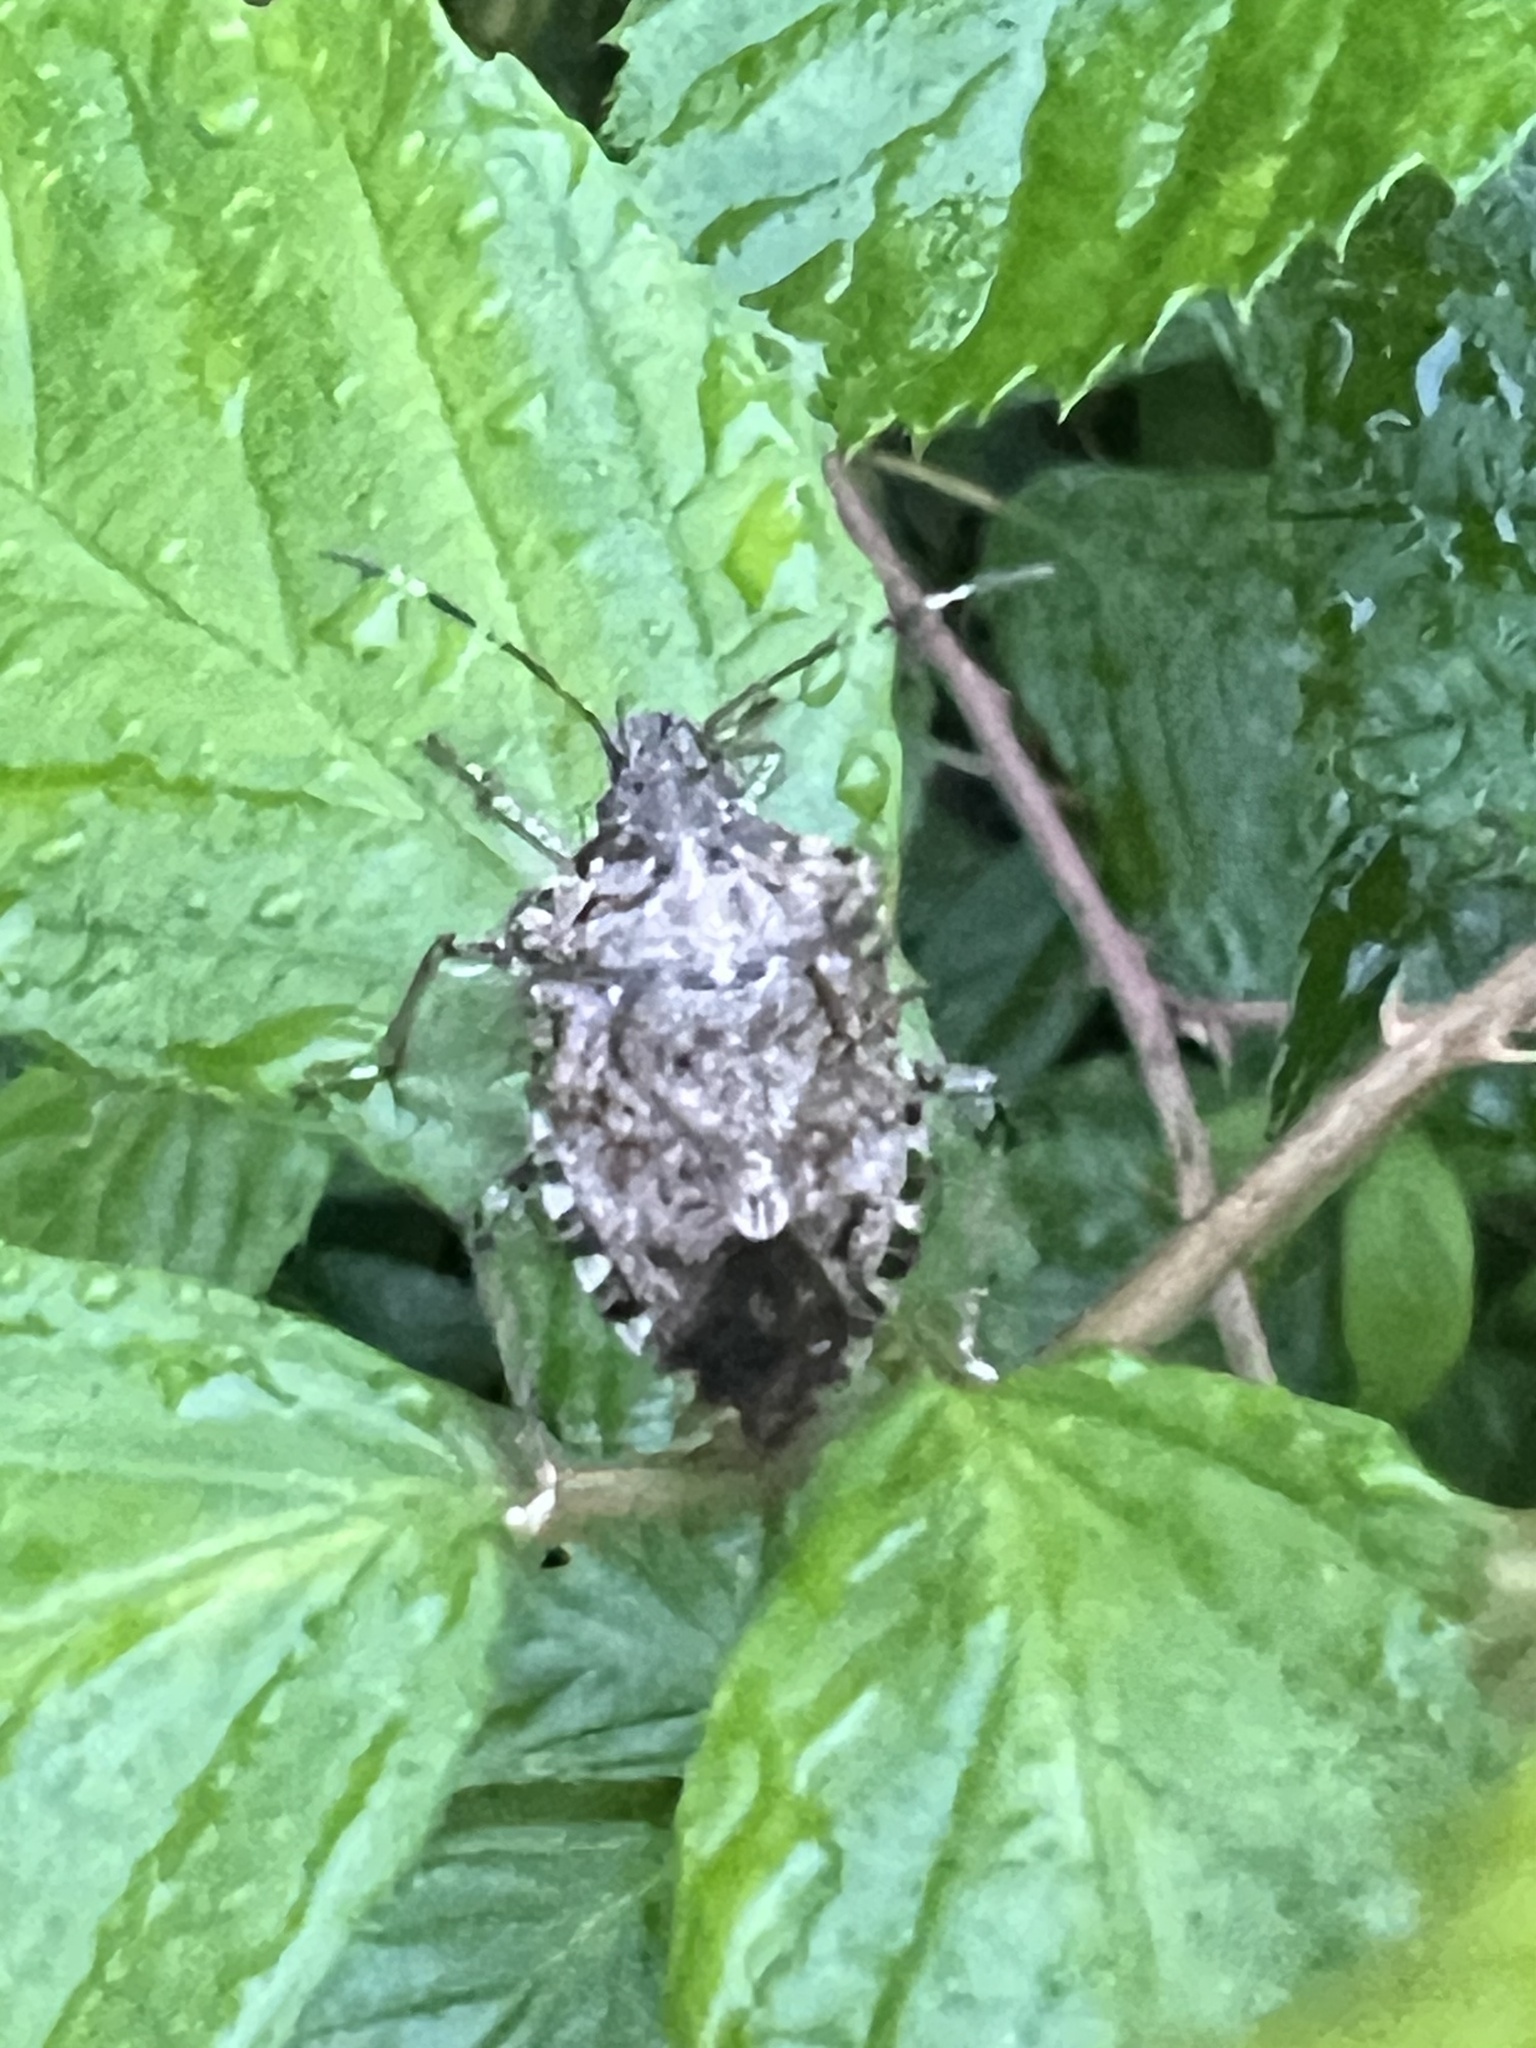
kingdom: Animalia
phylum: Arthropoda
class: Insecta
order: Hemiptera
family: Pentatomidae
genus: Halyomorpha
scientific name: Halyomorpha halys
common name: Brown marmorated stink bug
